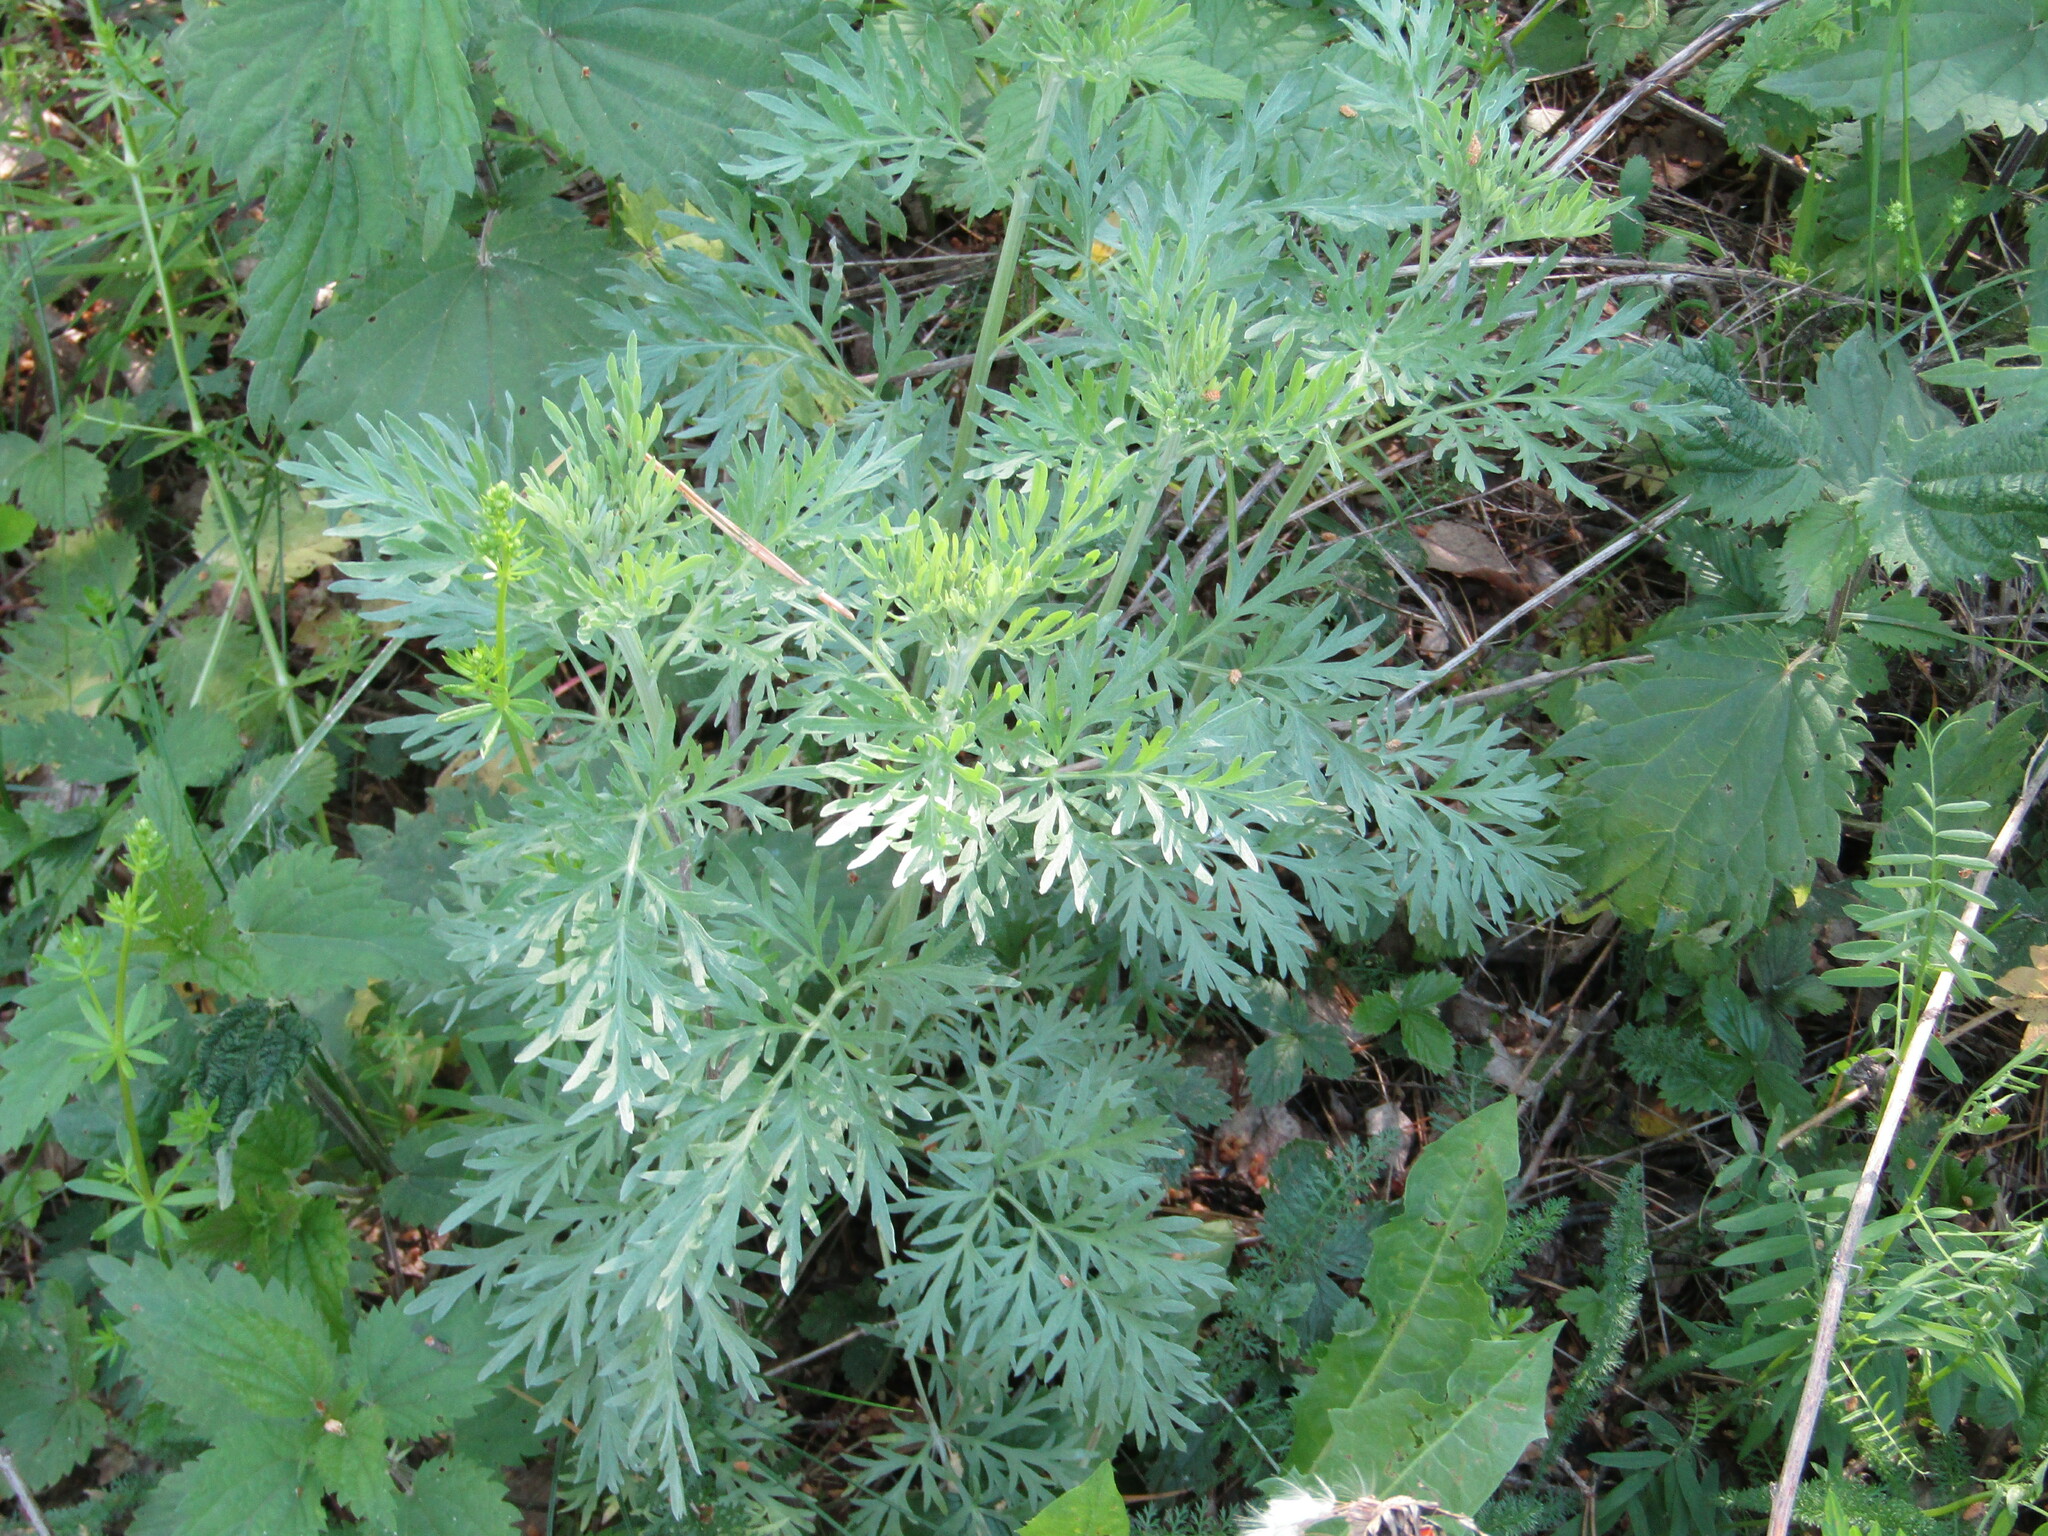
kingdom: Plantae
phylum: Tracheophyta
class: Magnoliopsida
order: Asterales
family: Asteraceae
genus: Artemisia
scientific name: Artemisia absinthium
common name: Wormwood
